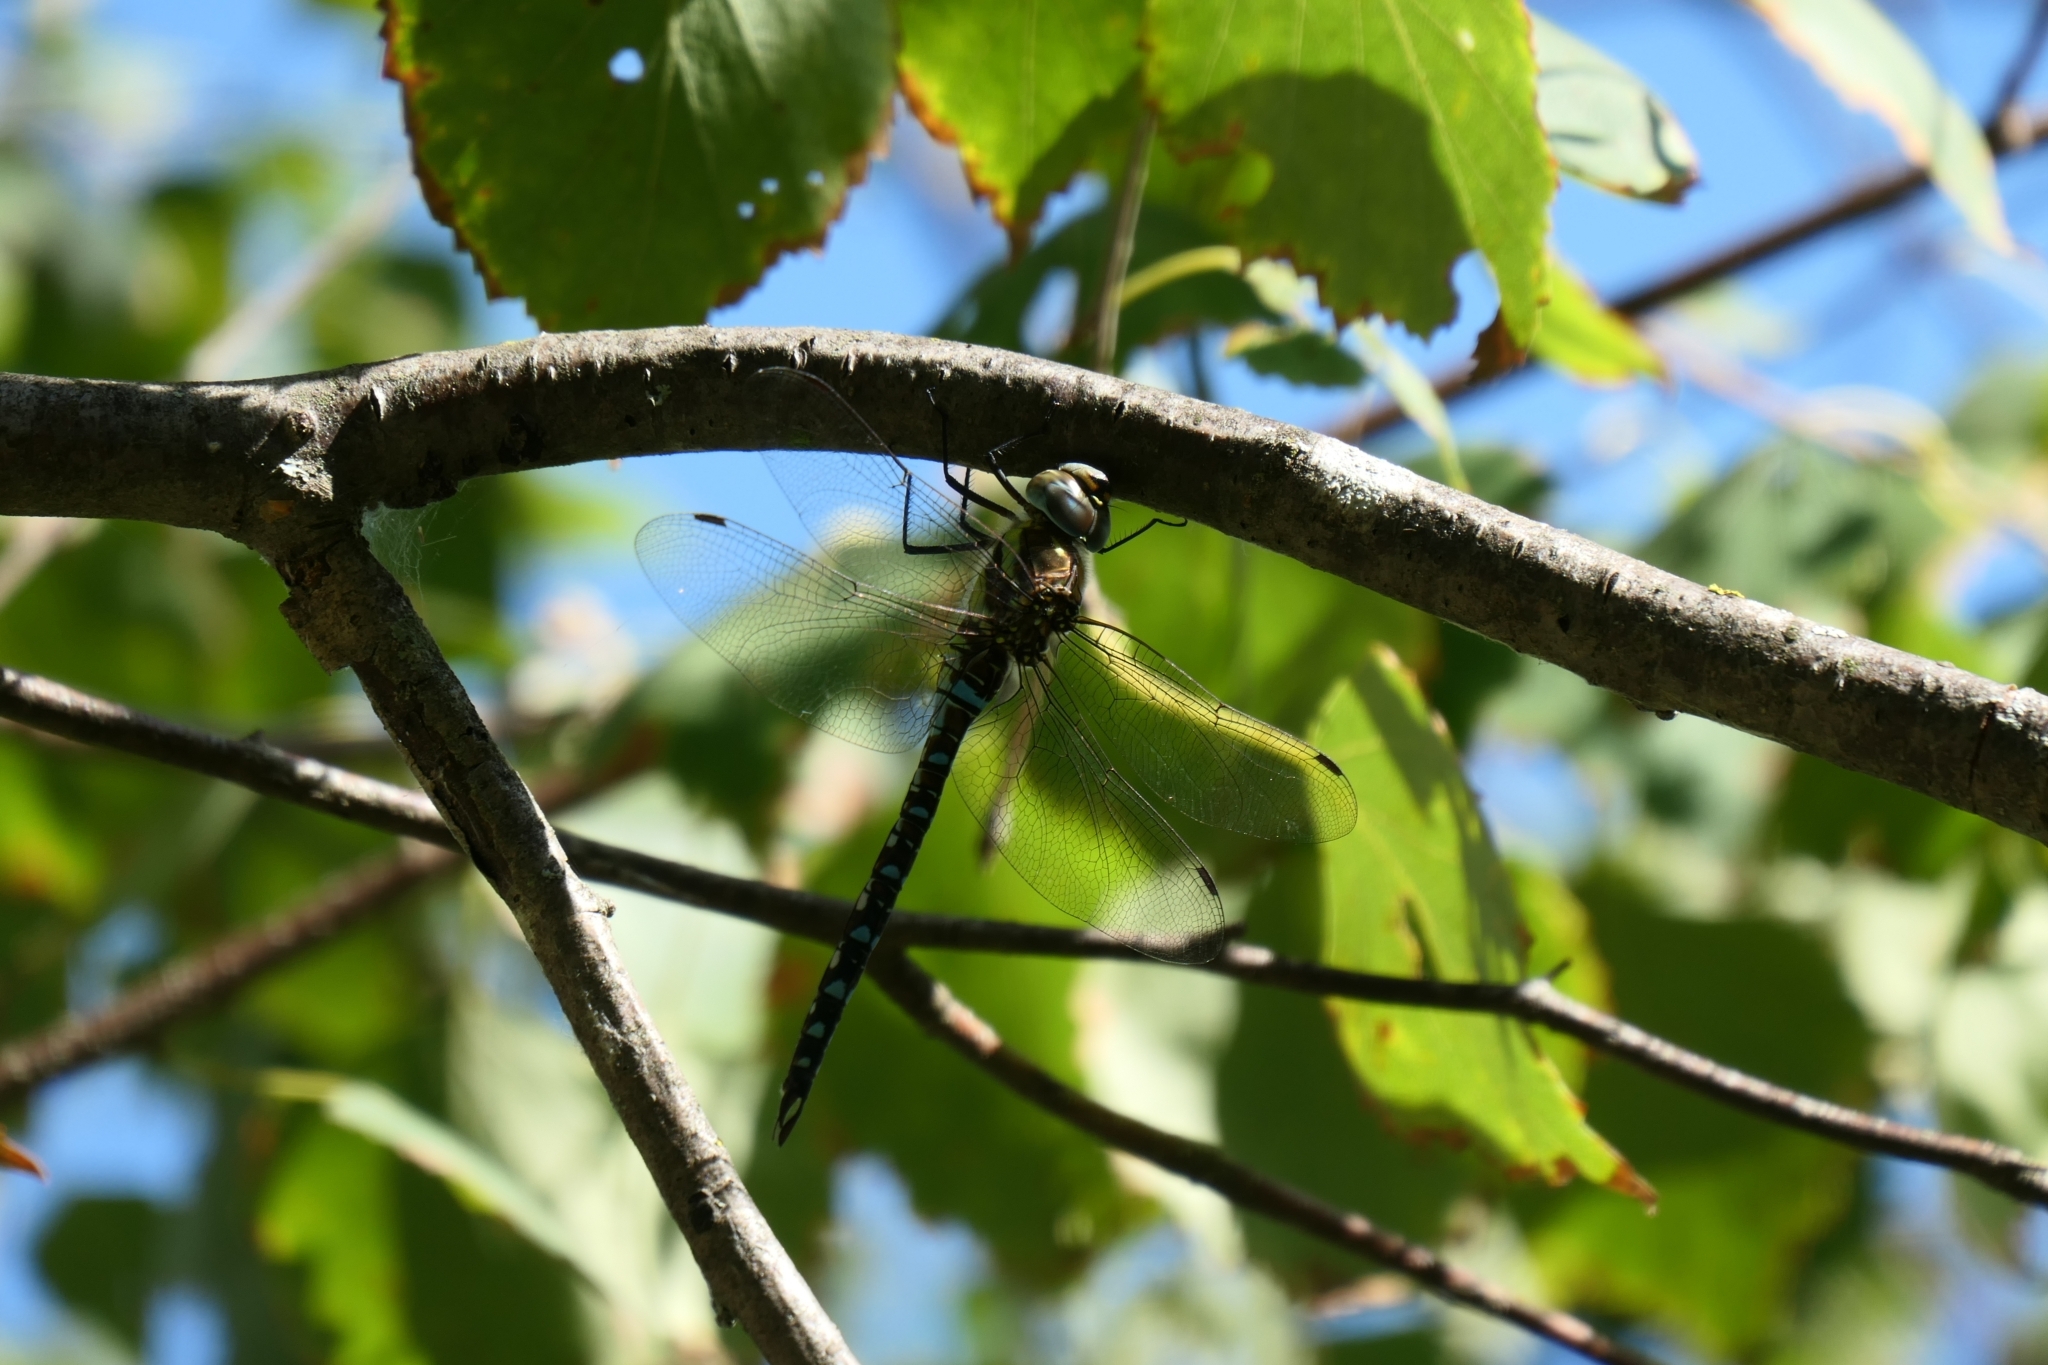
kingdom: Animalia
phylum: Arthropoda
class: Insecta
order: Odonata
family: Aeshnidae
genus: Aeshna
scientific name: Aeshna mixta
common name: Migrant hawker
